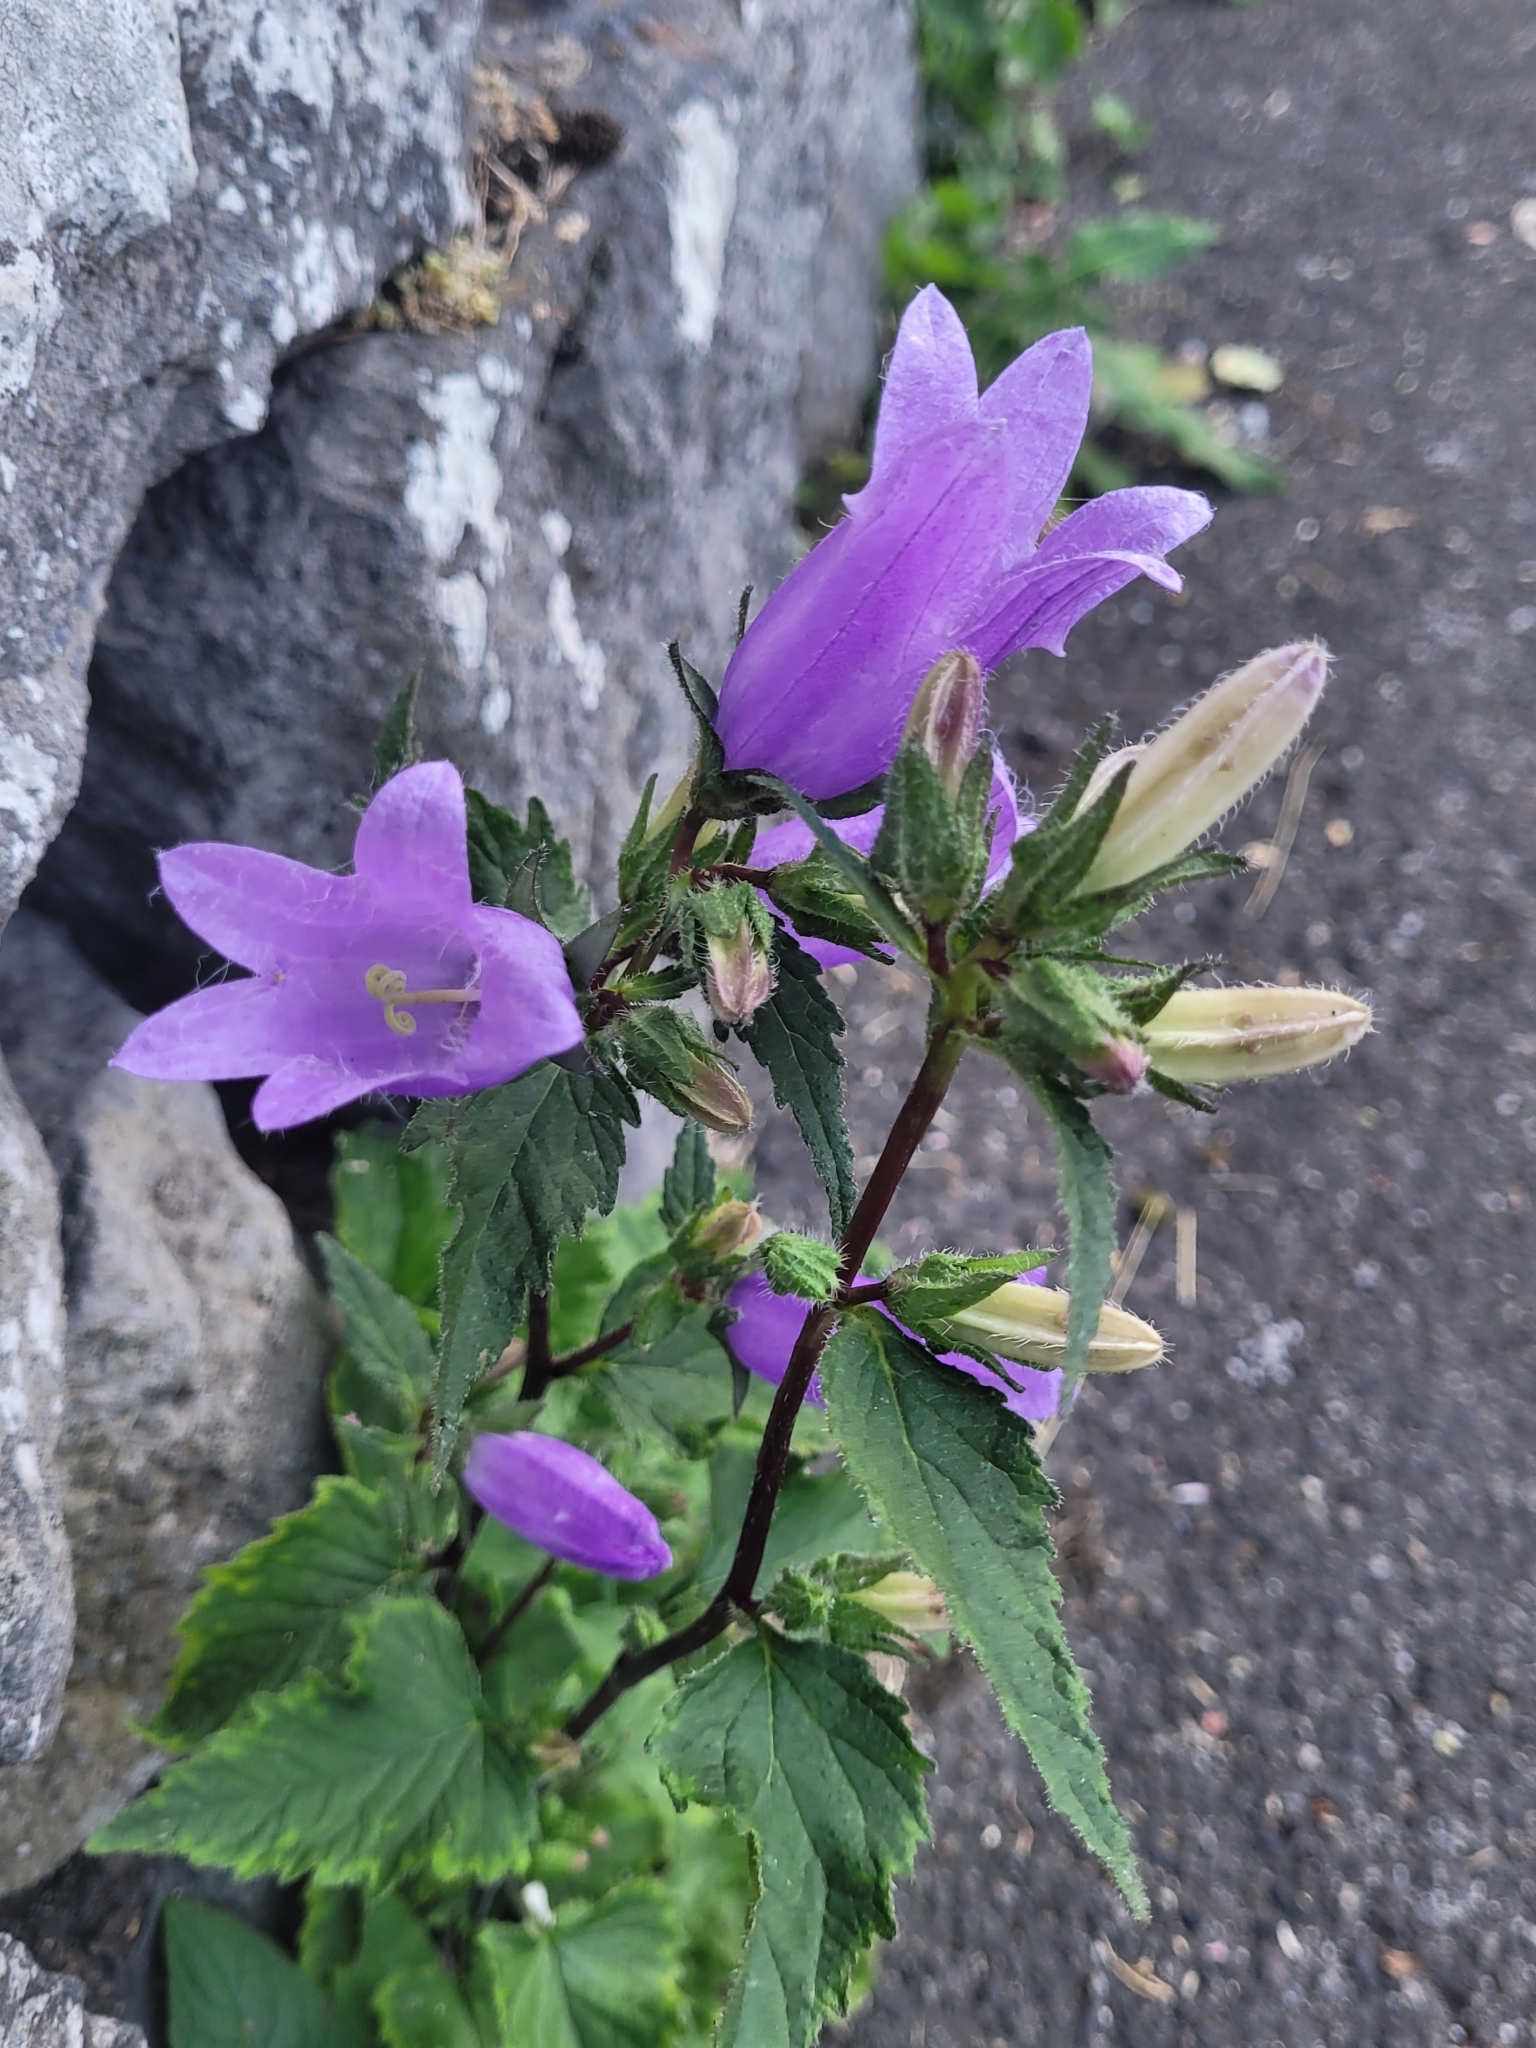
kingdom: Plantae
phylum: Tracheophyta
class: Magnoliopsida
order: Asterales
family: Campanulaceae
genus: Campanula
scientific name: Campanula trachelium
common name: Nettle-leaved bellflower
